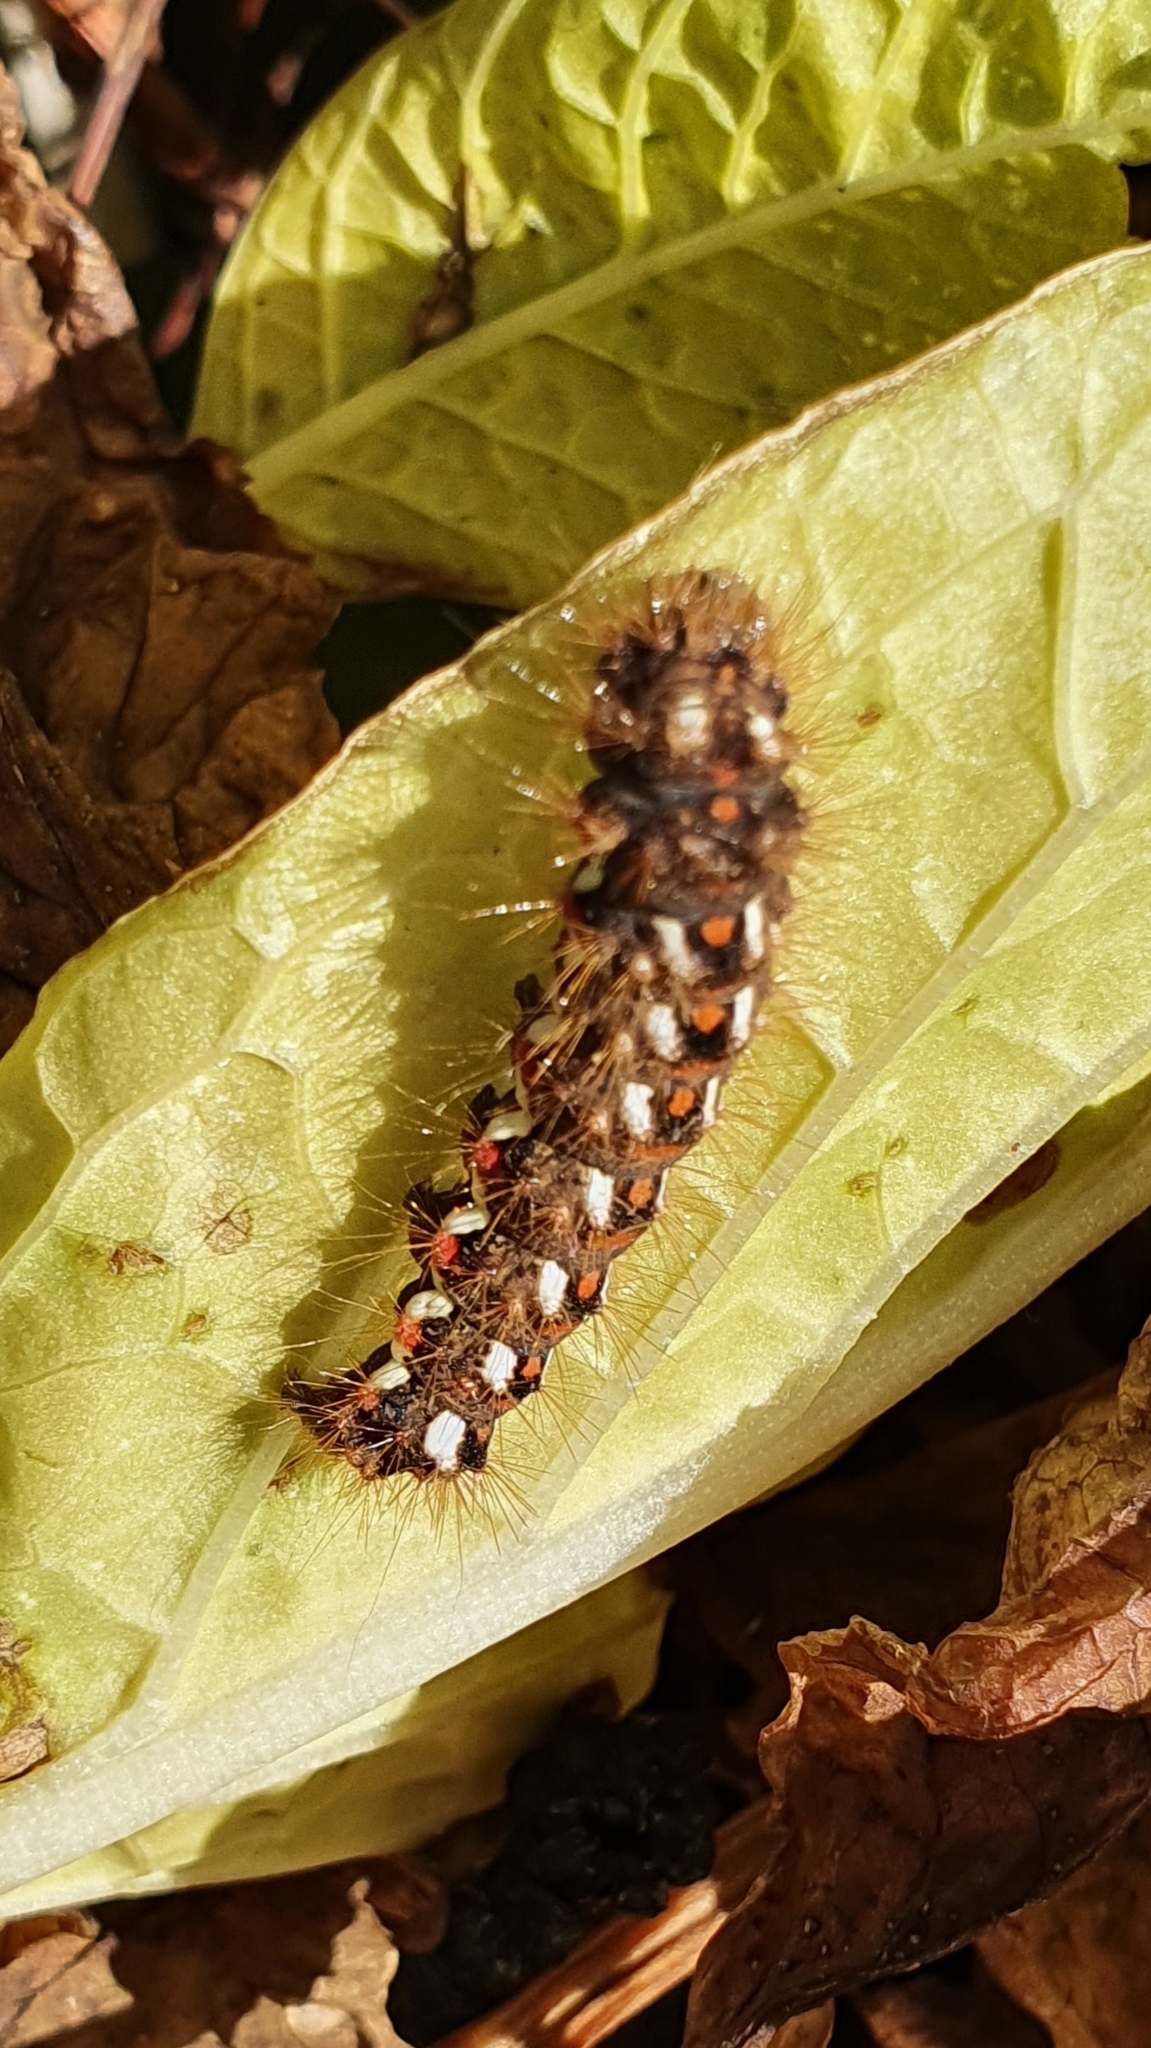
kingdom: Animalia
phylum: Arthropoda
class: Insecta
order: Lepidoptera
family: Noctuidae
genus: Acronicta
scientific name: Acronicta rumicis
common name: Knot grass
